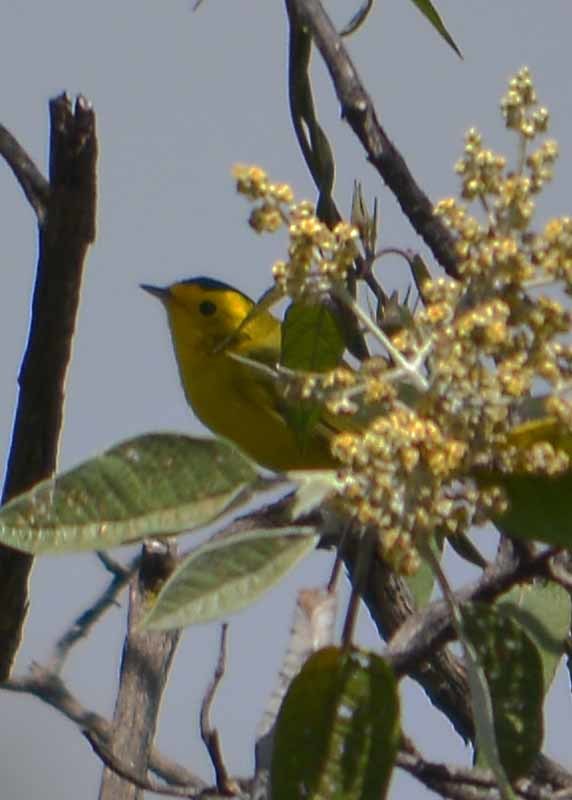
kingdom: Animalia
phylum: Chordata
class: Aves
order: Passeriformes
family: Parulidae
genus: Cardellina
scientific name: Cardellina pusilla
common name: Wilson's warbler
